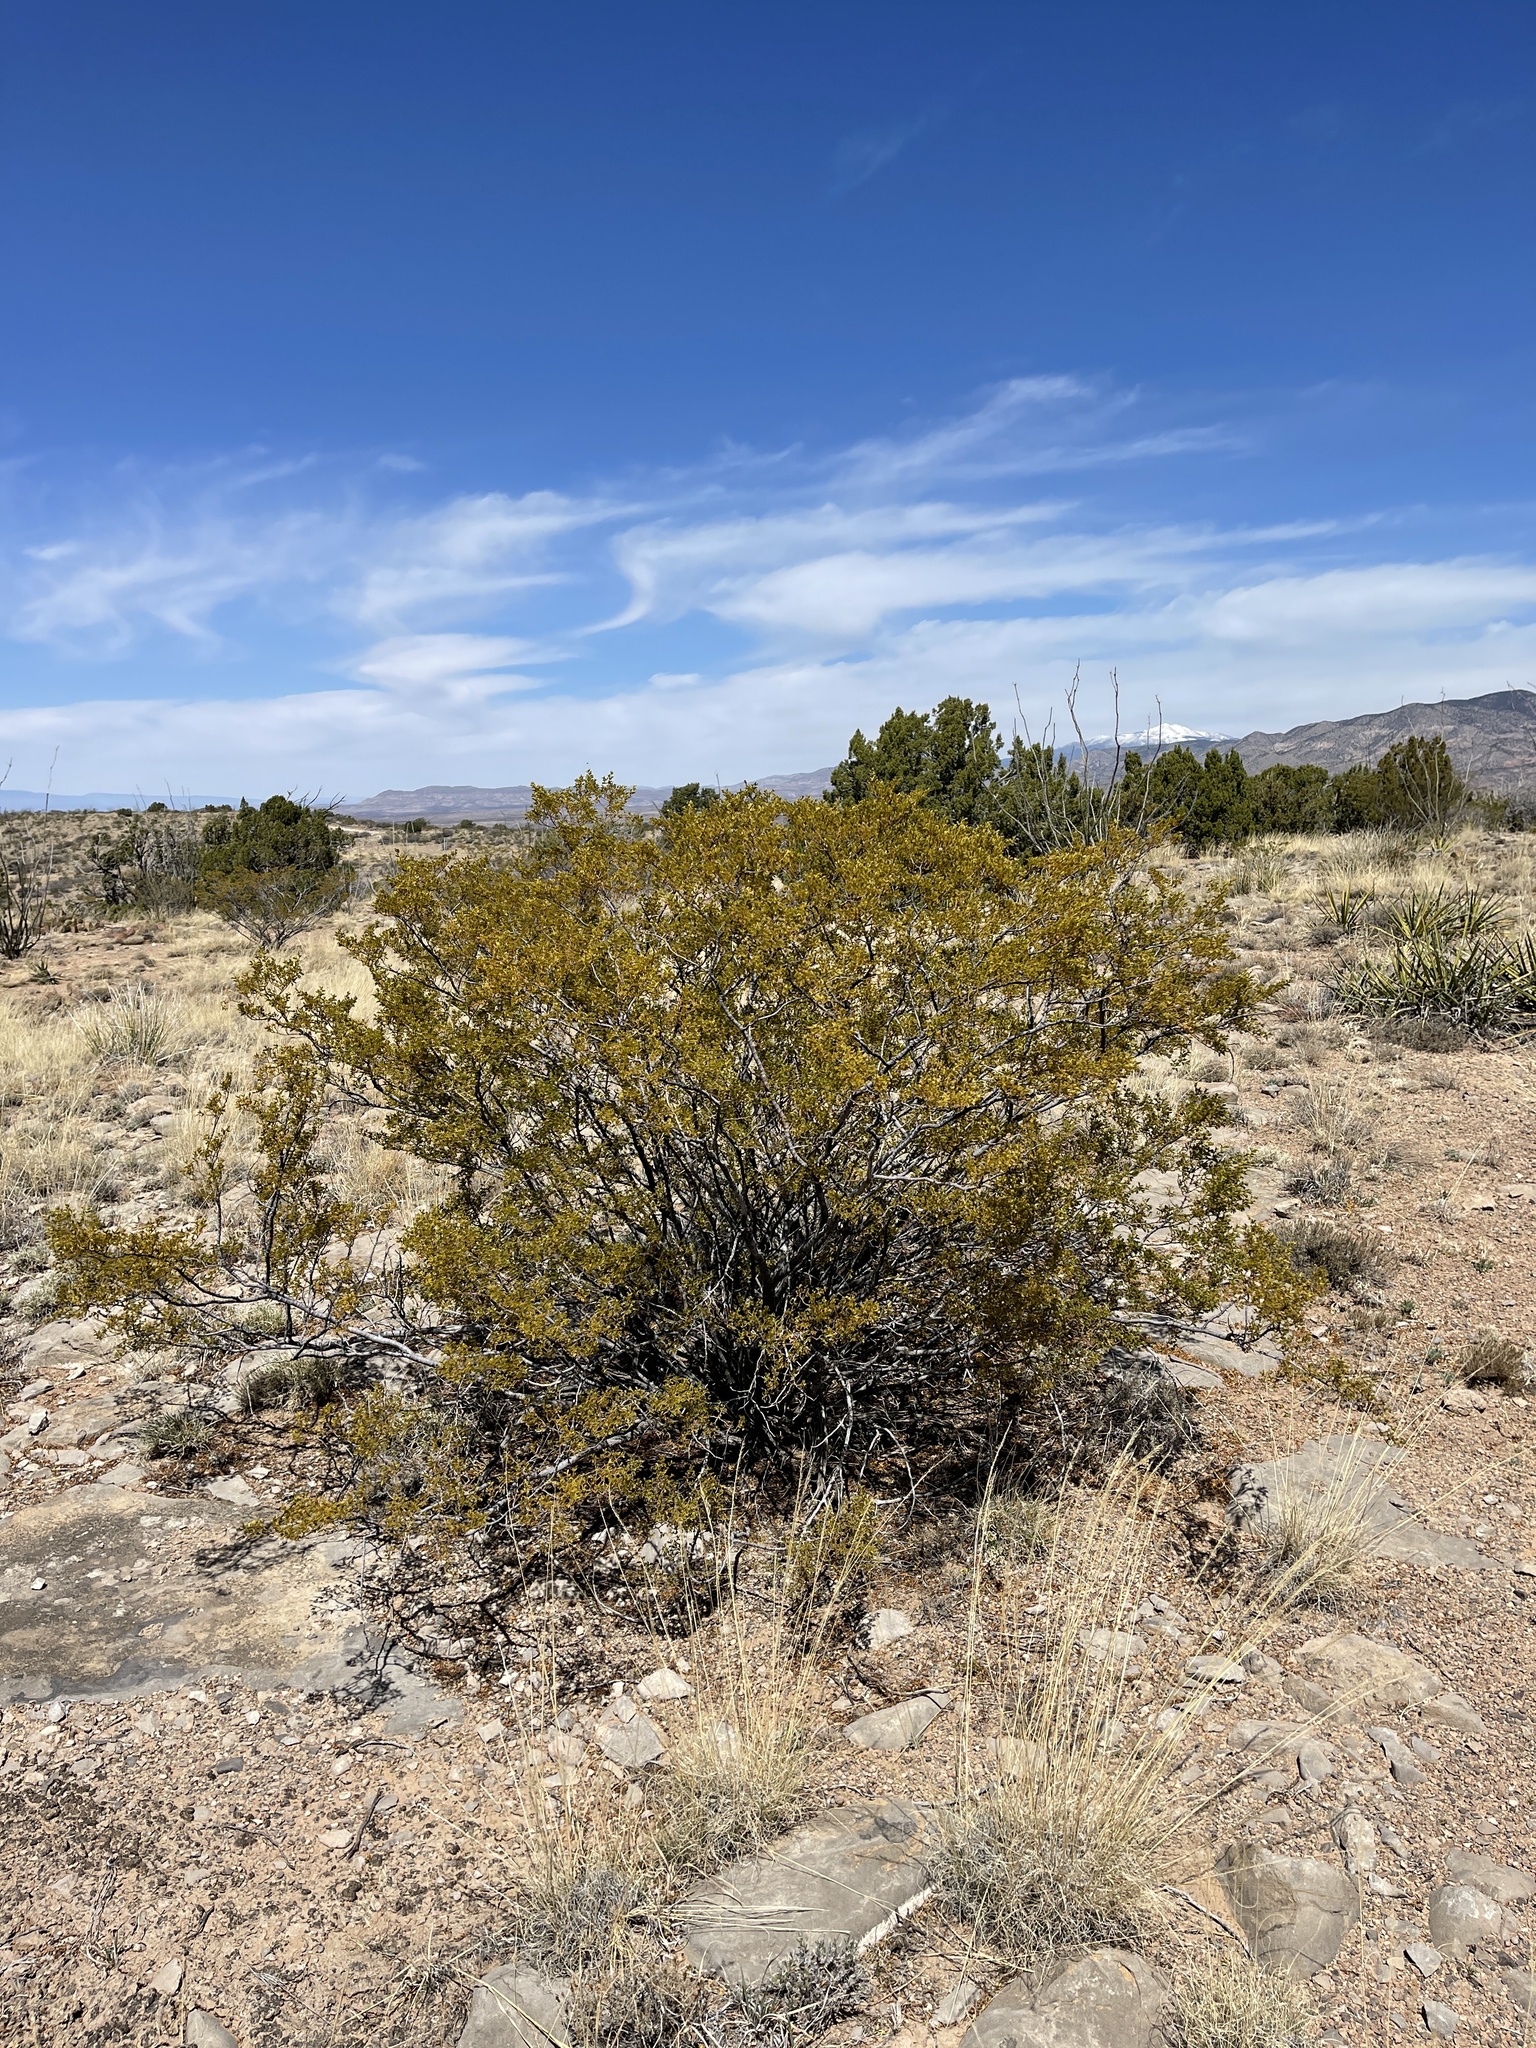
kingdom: Plantae
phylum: Tracheophyta
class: Magnoliopsida
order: Zygophyllales
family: Zygophyllaceae
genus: Larrea
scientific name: Larrea tridentata
